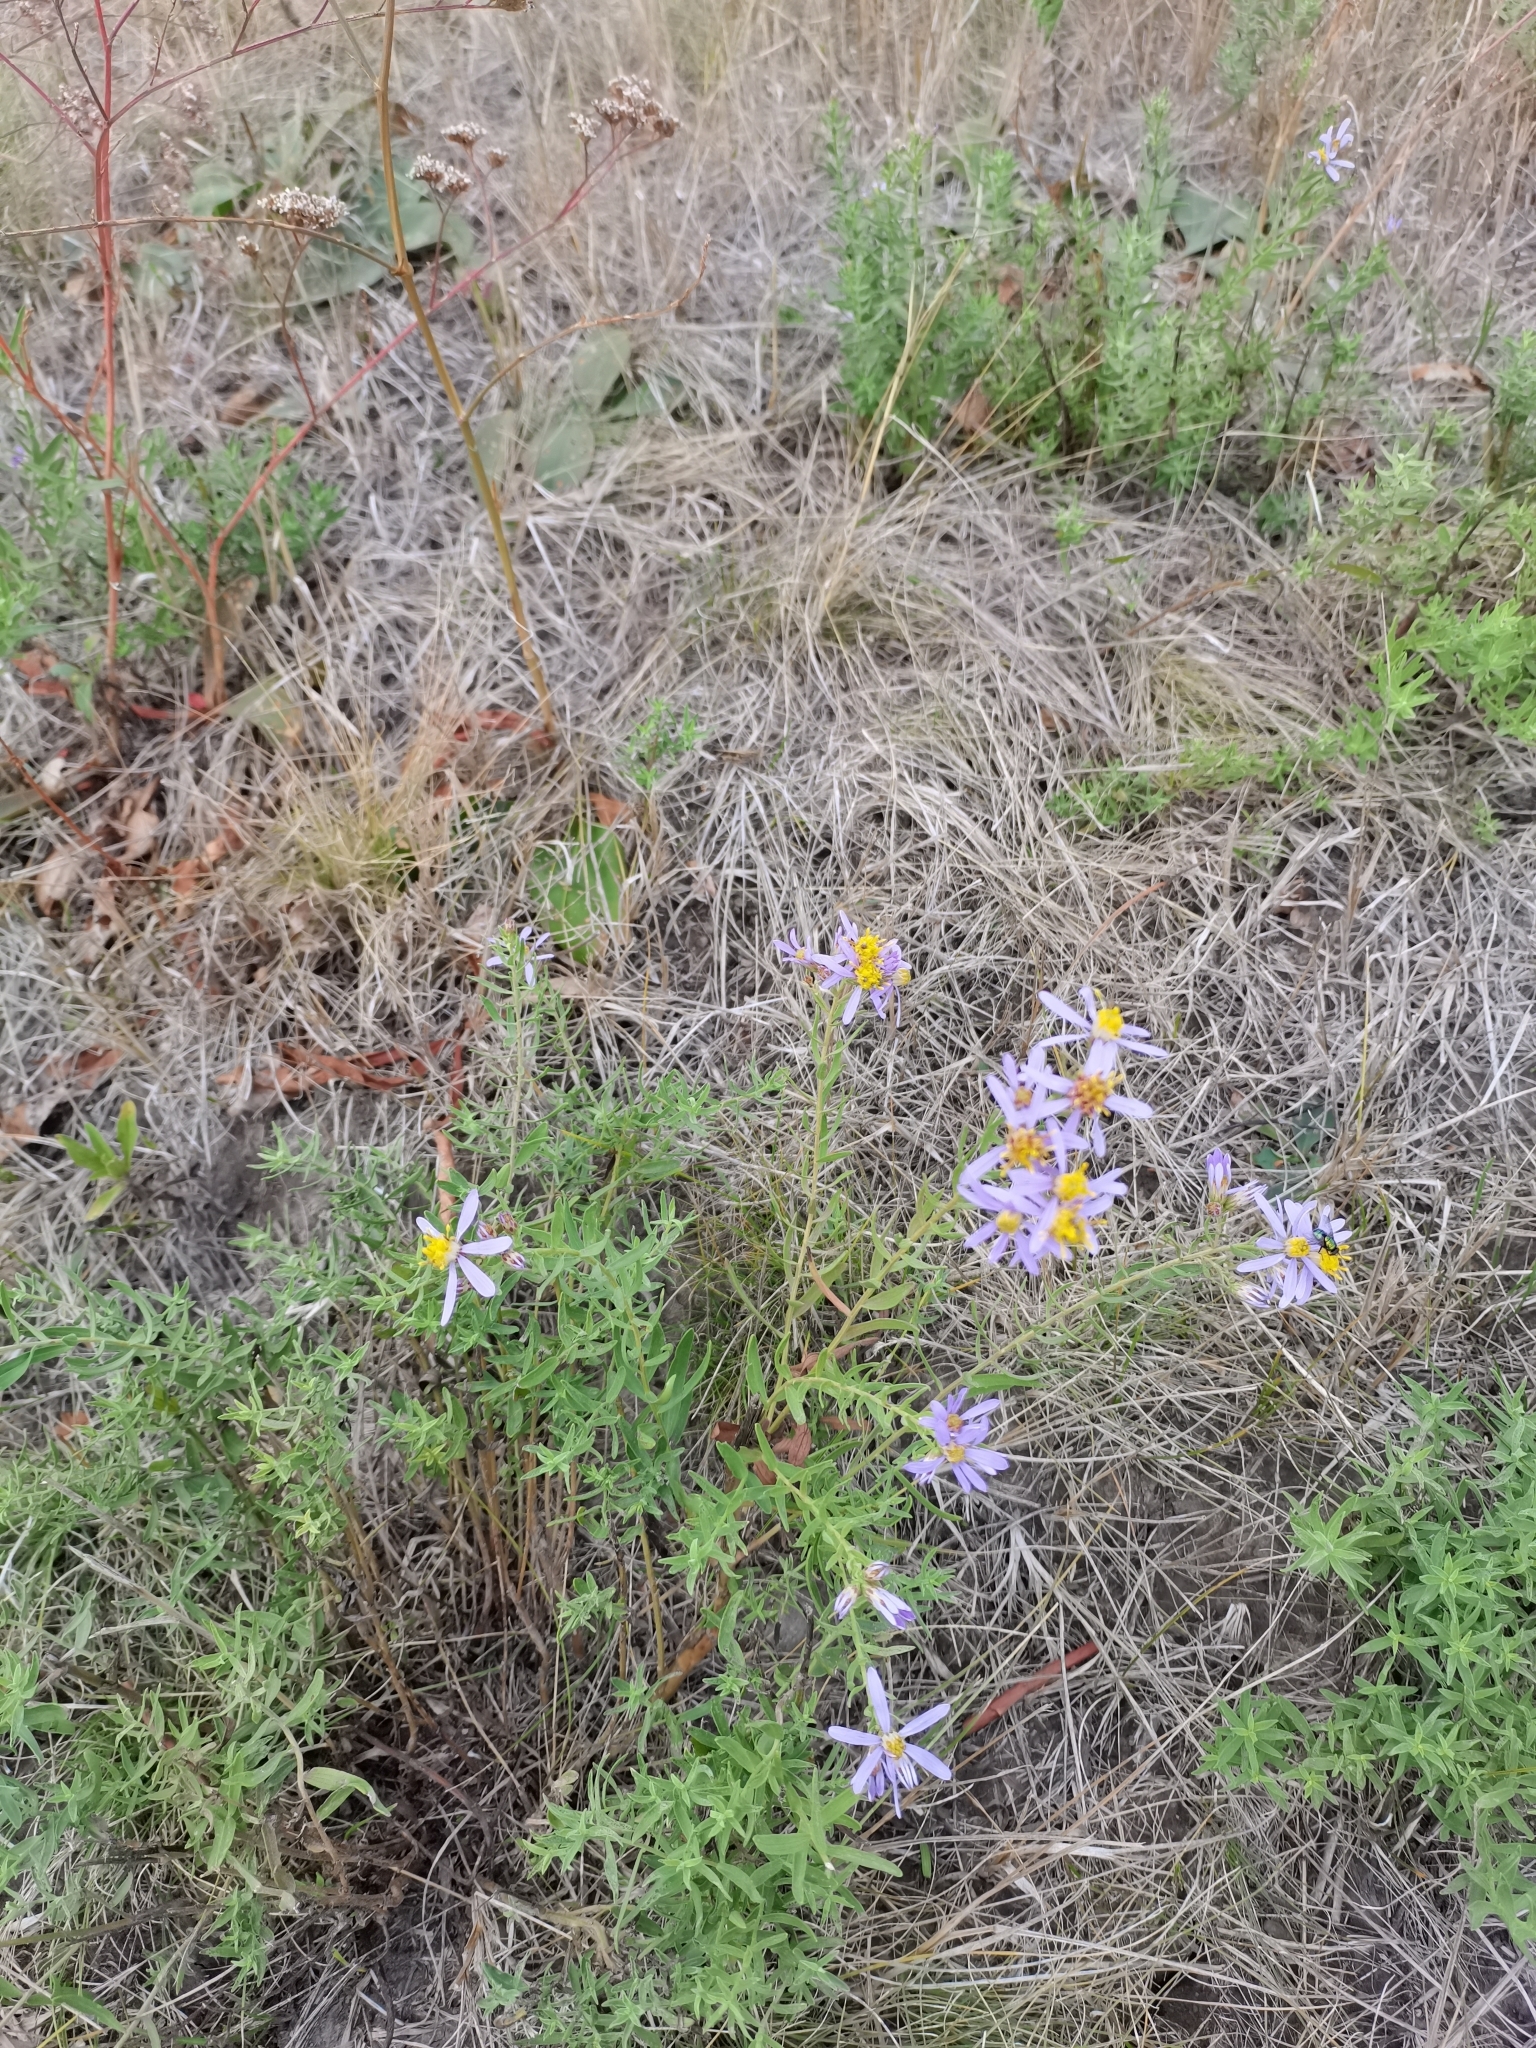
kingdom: Plantae
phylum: Tracheophyta
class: Magnoliopsida
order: Asterales
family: Asteraceae
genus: Galatella
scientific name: Galatella sedifolia
